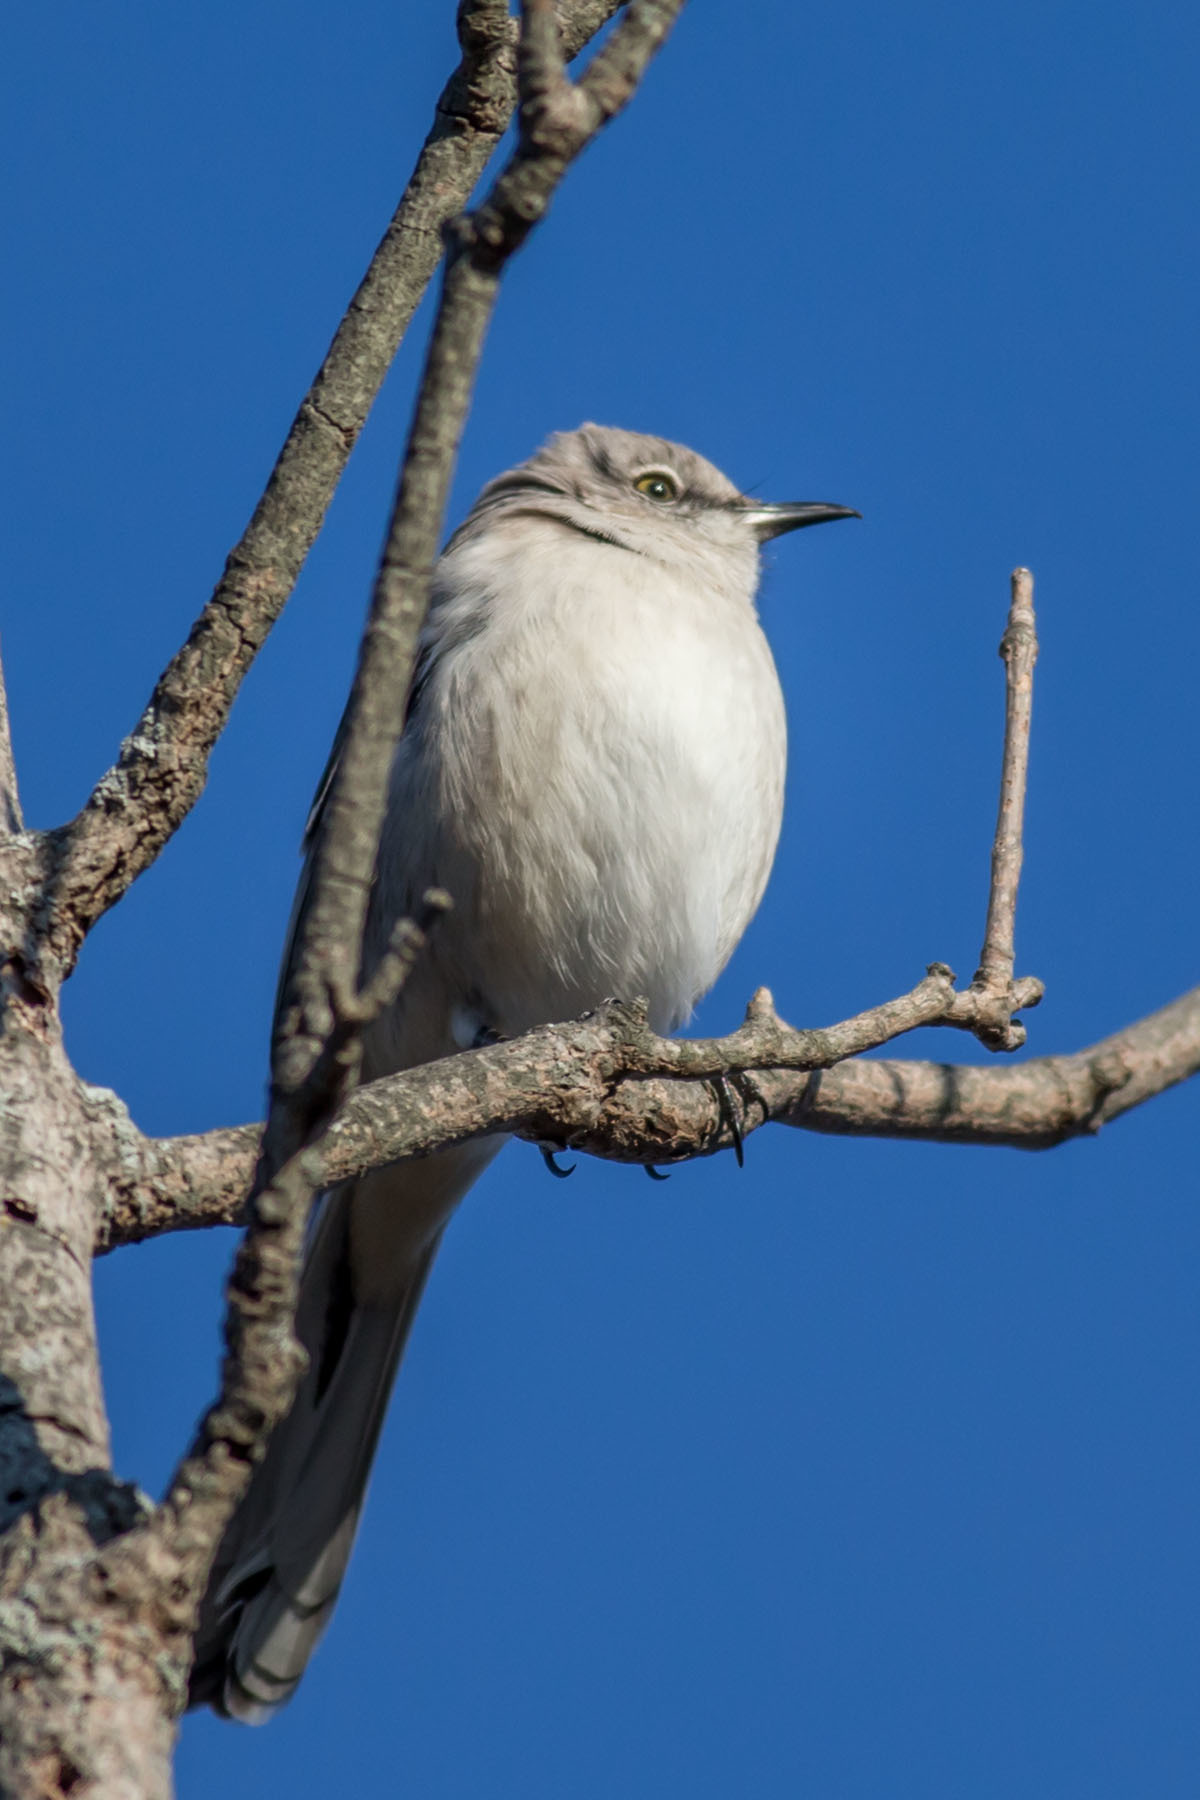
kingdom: Animalia
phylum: Chordata
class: Aves
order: Passeriformes
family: Mimidae
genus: Mimus
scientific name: Mimus polyglottos
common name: Northern mockingbird
